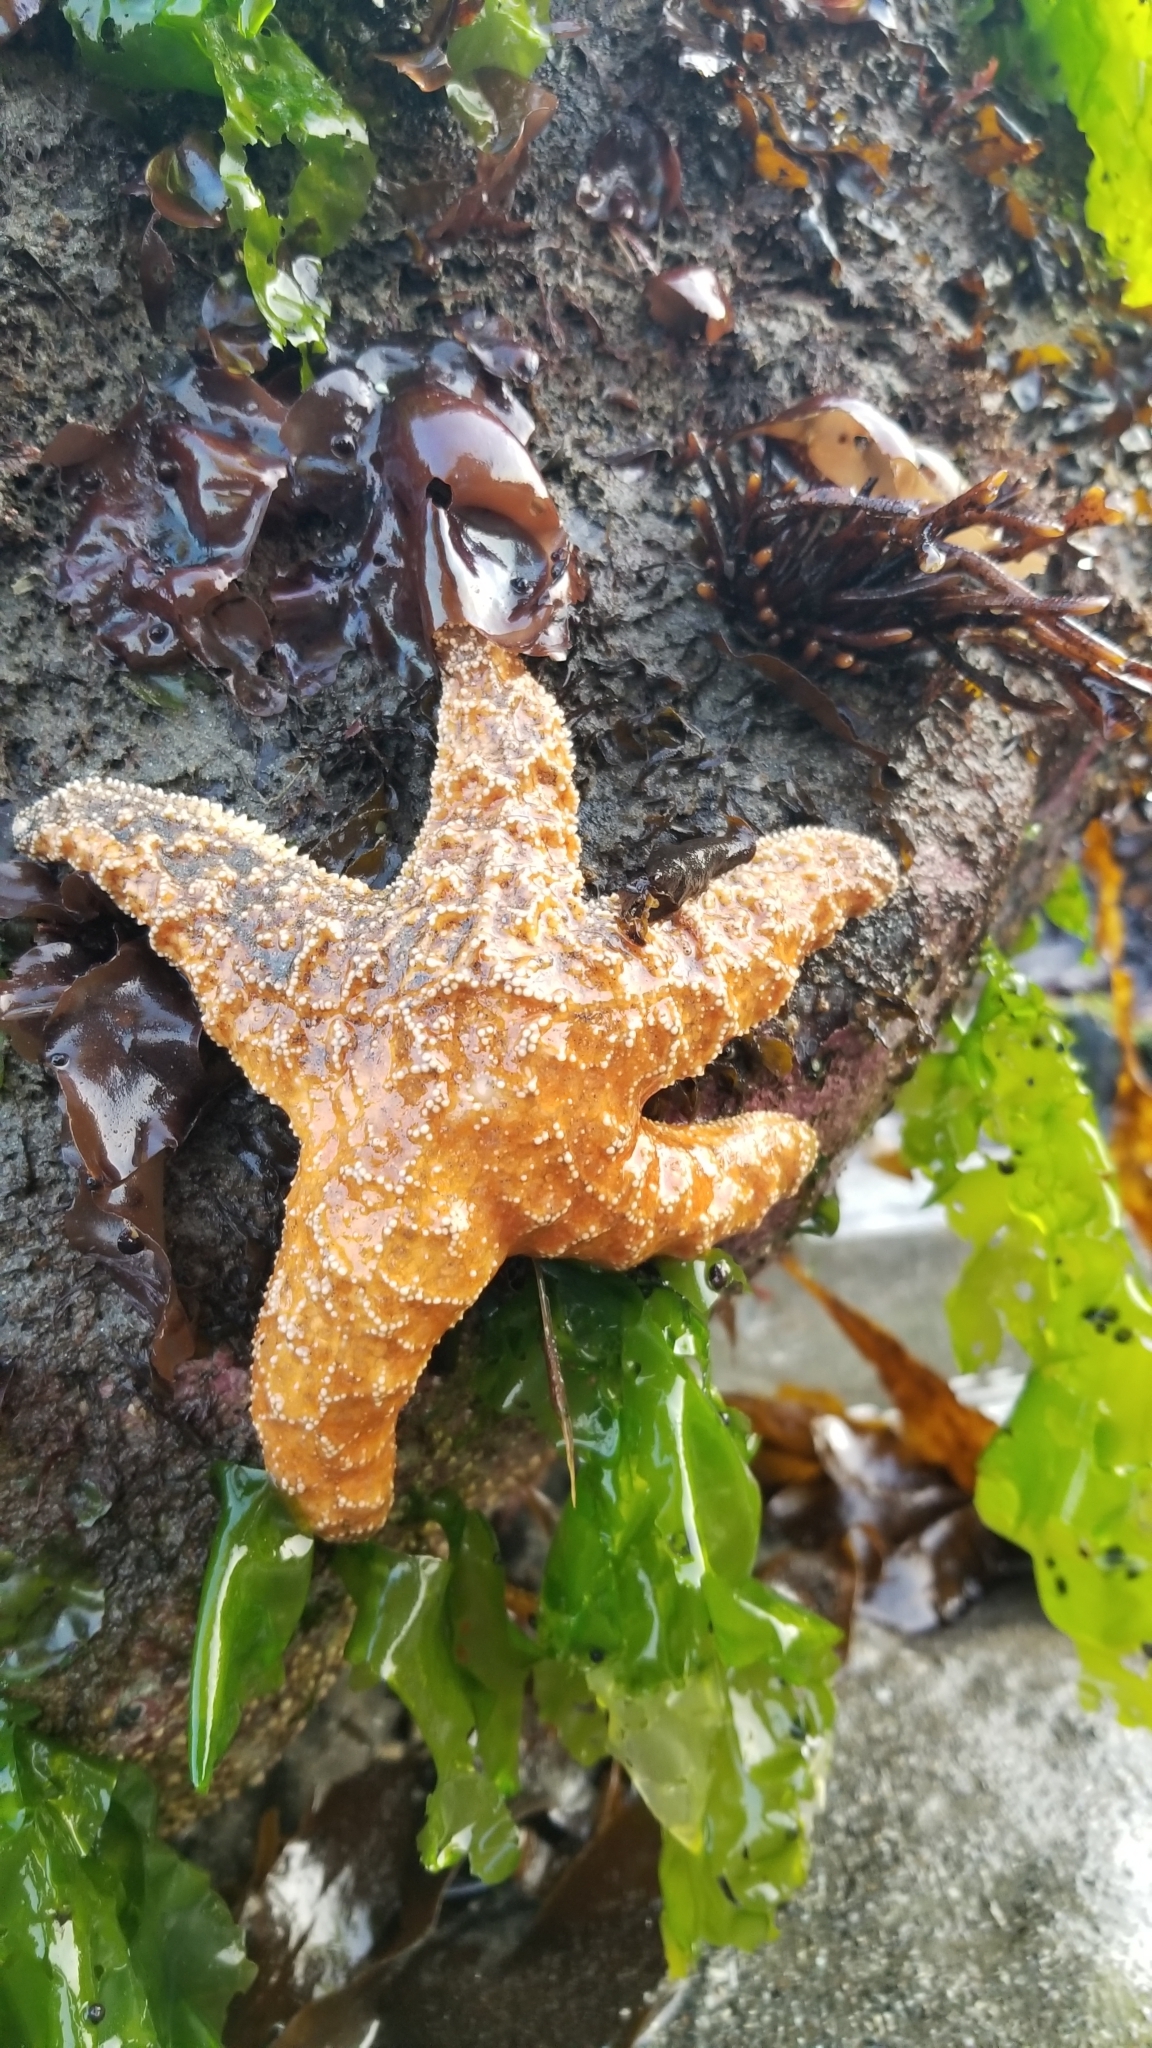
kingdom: Animalia
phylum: Echinodermata
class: Asteroidea
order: Valvatida
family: Asteropseidae
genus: Dermasterias
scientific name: Dermasterias imbricata
